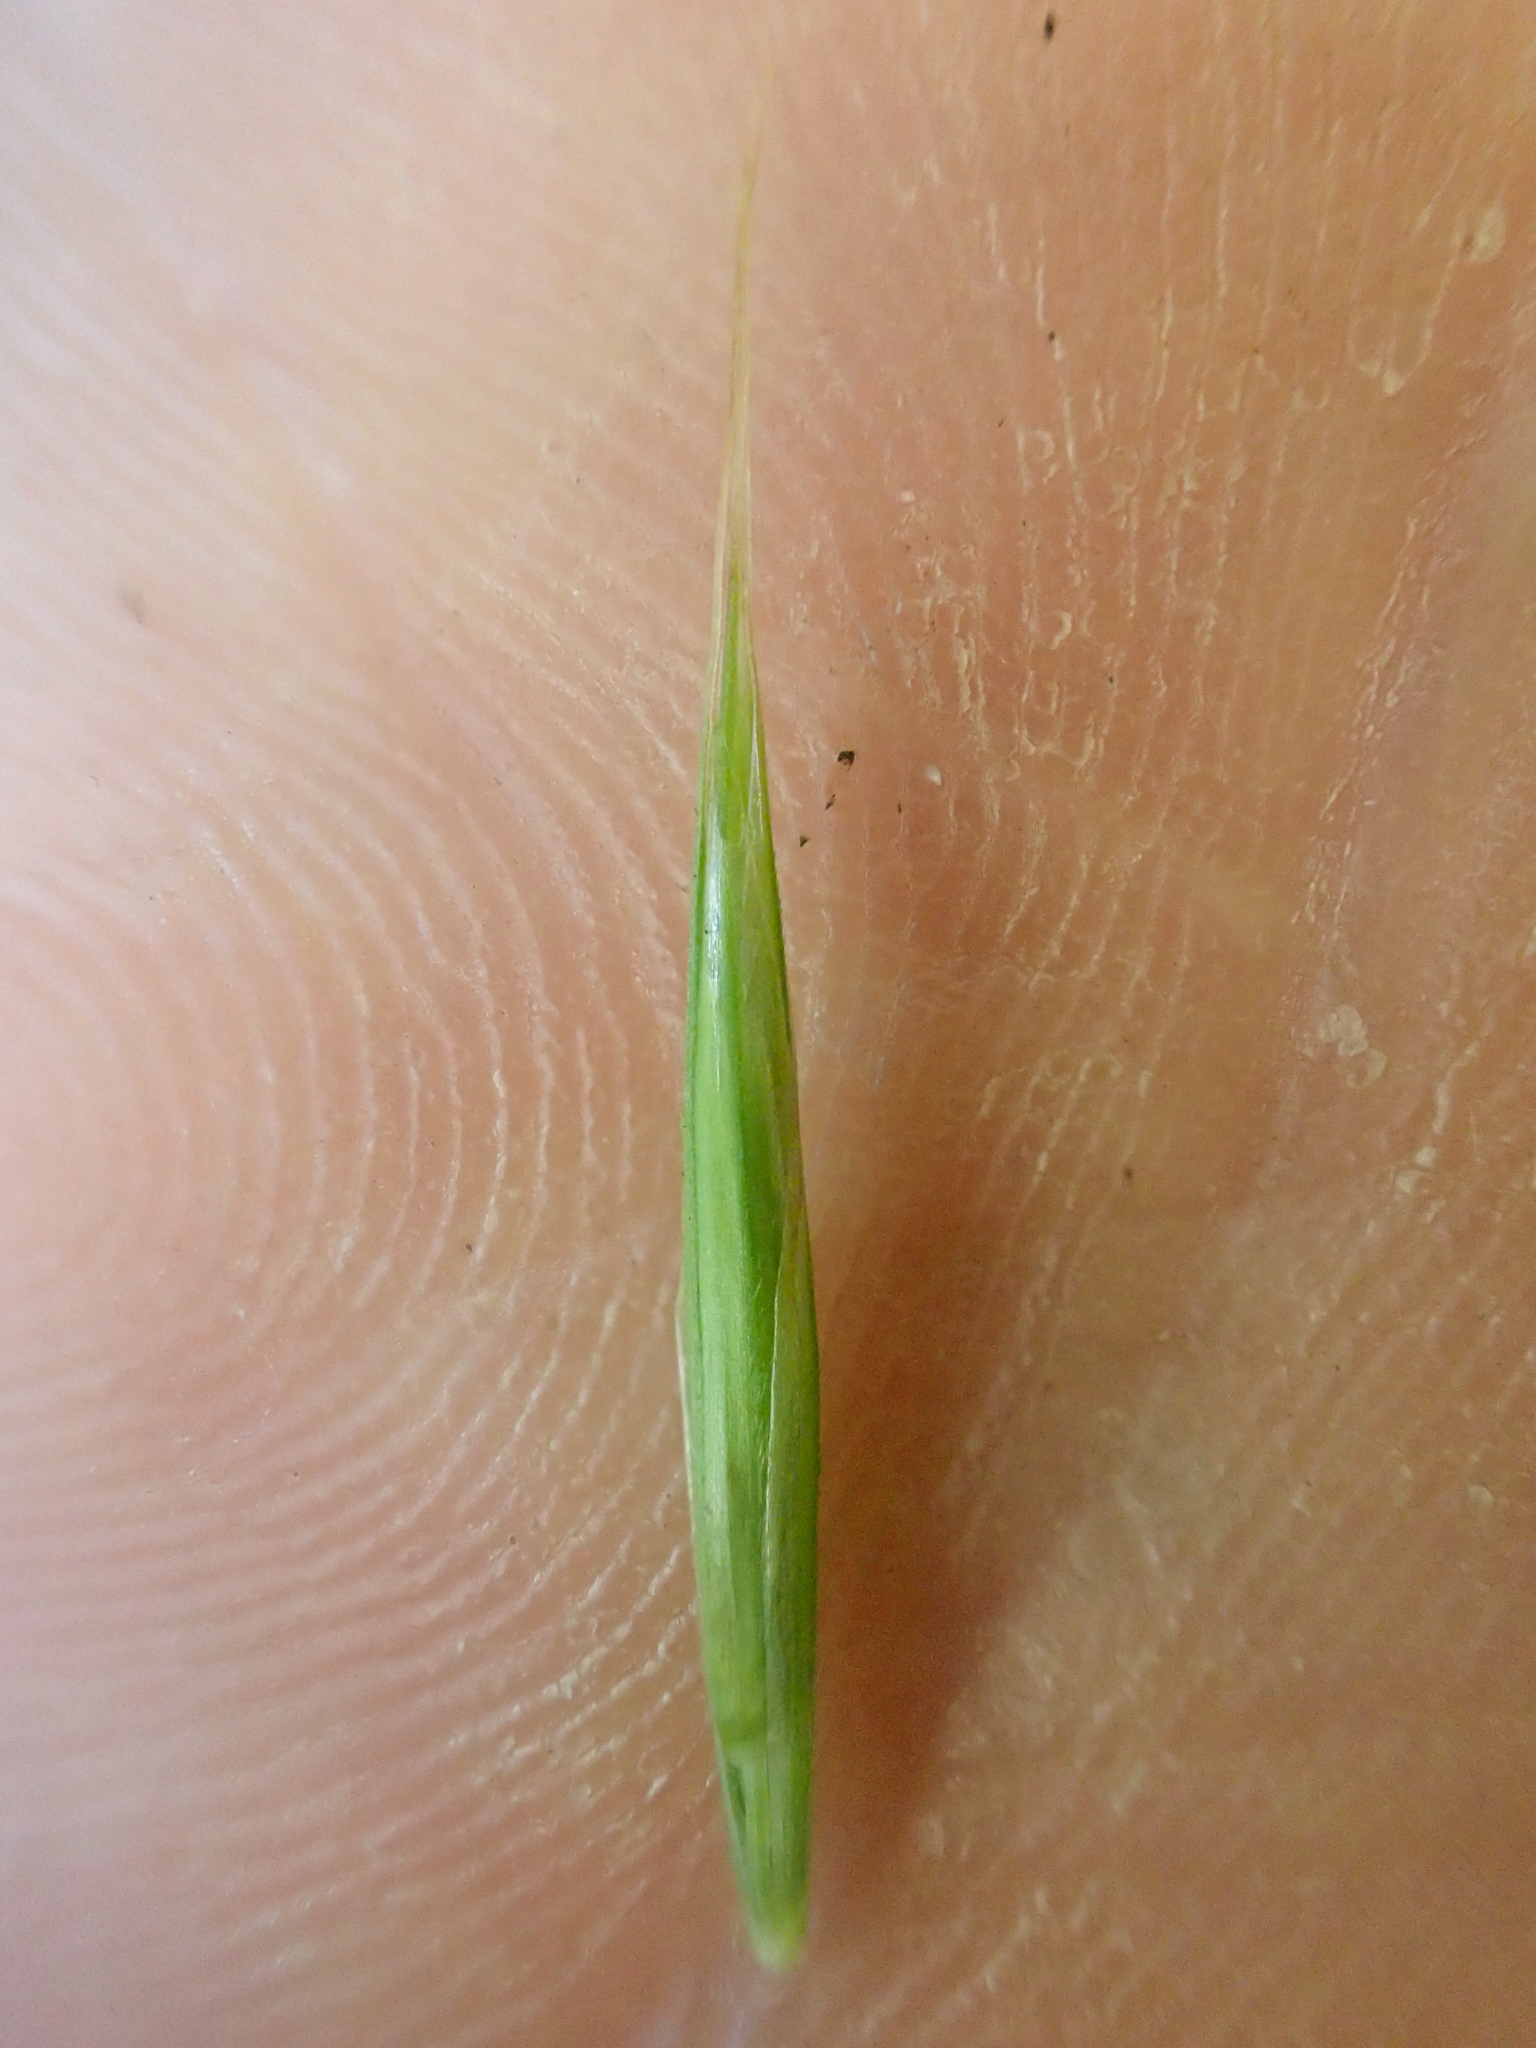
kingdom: Plantae
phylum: Tracheophyta
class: Liliopsida
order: Poales
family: Poaceae
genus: Bromus
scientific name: Bromus vulgaris
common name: Columbia brome
